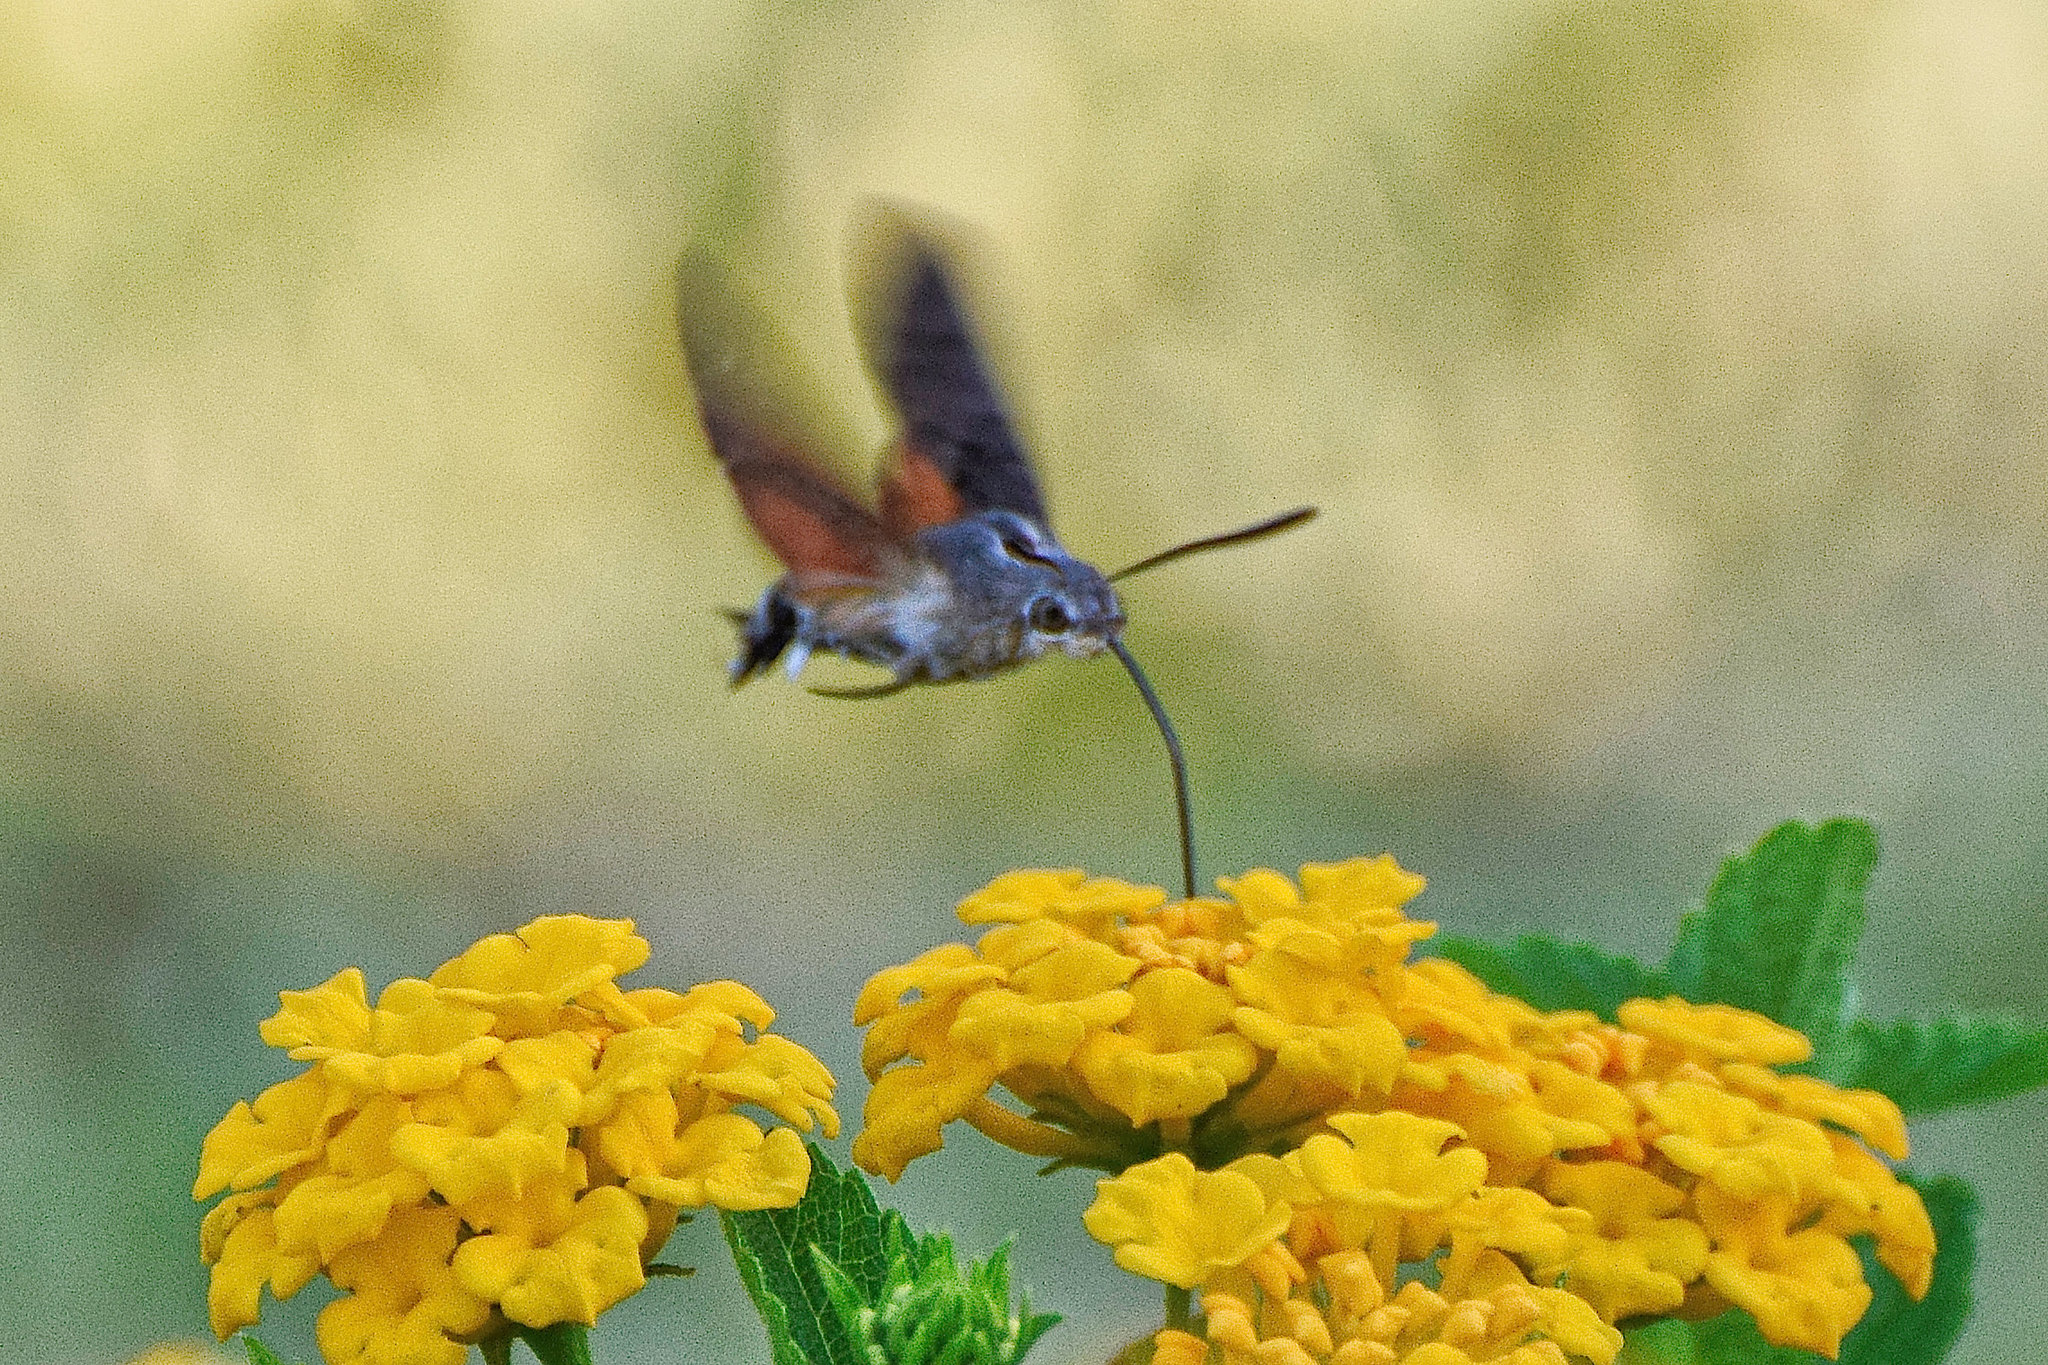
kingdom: Animalia
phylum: Arthropoda
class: Insecta
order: Lepidoptera
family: Sphingidae
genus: Macroglossum
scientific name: Macroglossum stellatarum
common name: Humming-bird hawk-moth
